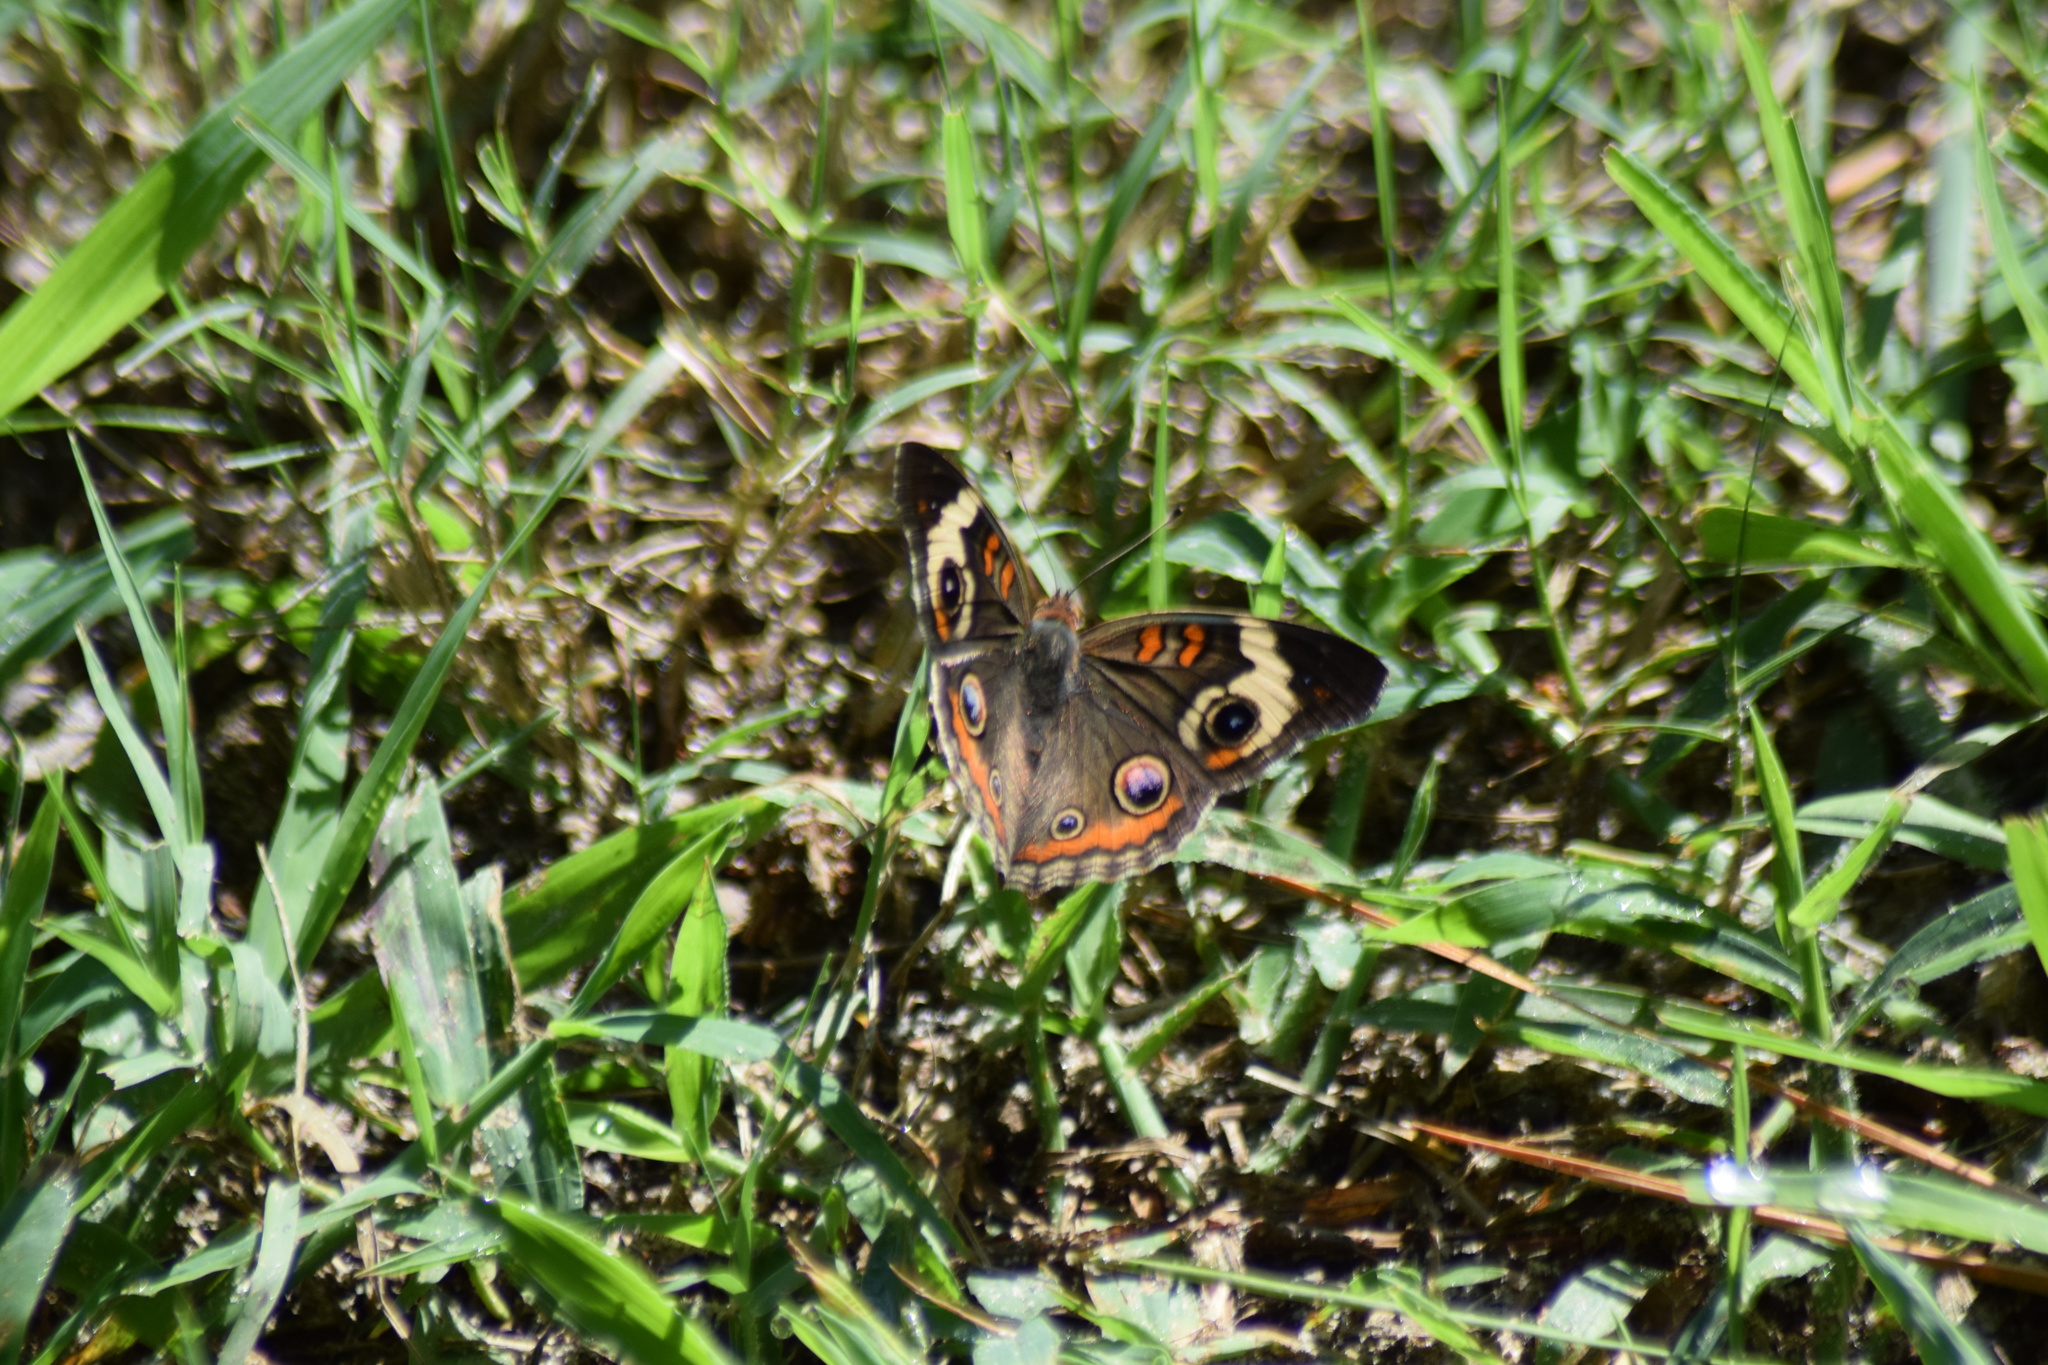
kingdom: Animalia
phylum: Arthropoda
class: Insecta
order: Lepidoptera
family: Nymphalidae
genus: Junonia
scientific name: Junonia coenia
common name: Common buckeye
